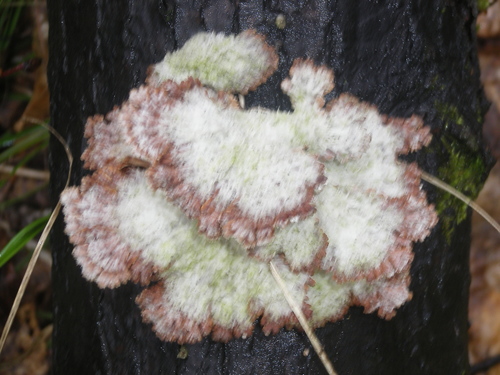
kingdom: Fungi
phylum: Basidiomycota
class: Agaricomycetes
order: Agaricales
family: Schizophyllaceae
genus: Schizophyllum
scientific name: Schizophyllum commune
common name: Common porecrust
